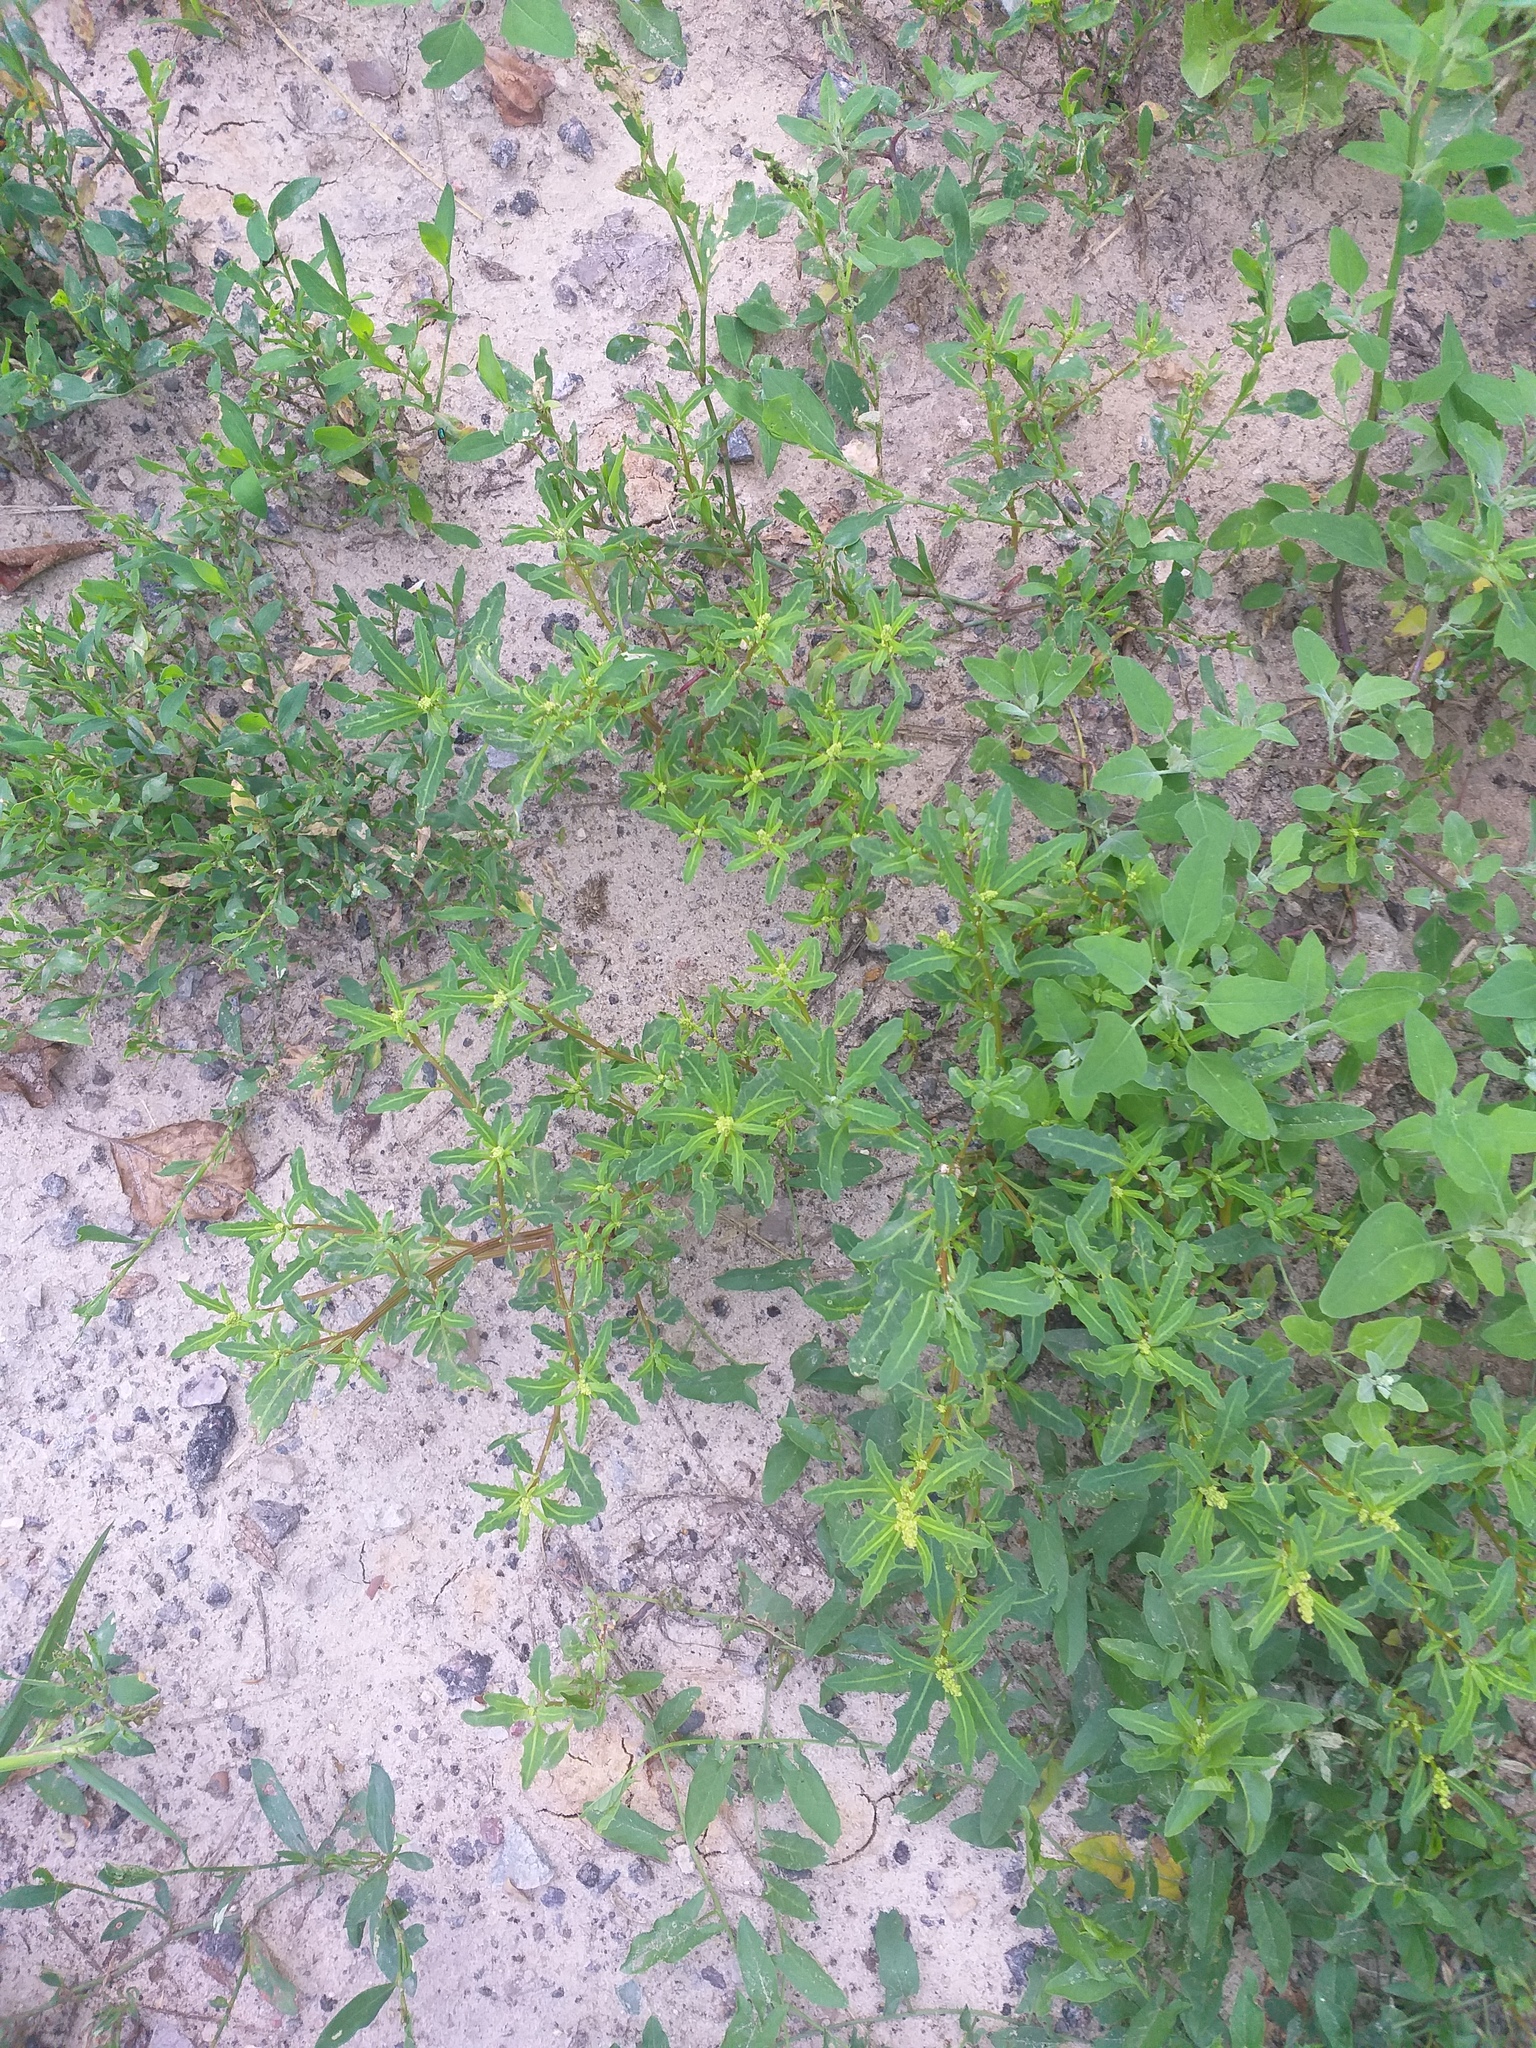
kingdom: Plantae
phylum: Tracheophyta
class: Magnoliopsida
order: Caryophyllales
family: Amaranthaceae
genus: Oxybasis
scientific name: Oxybasis glauca
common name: Glaucous goosefoot
